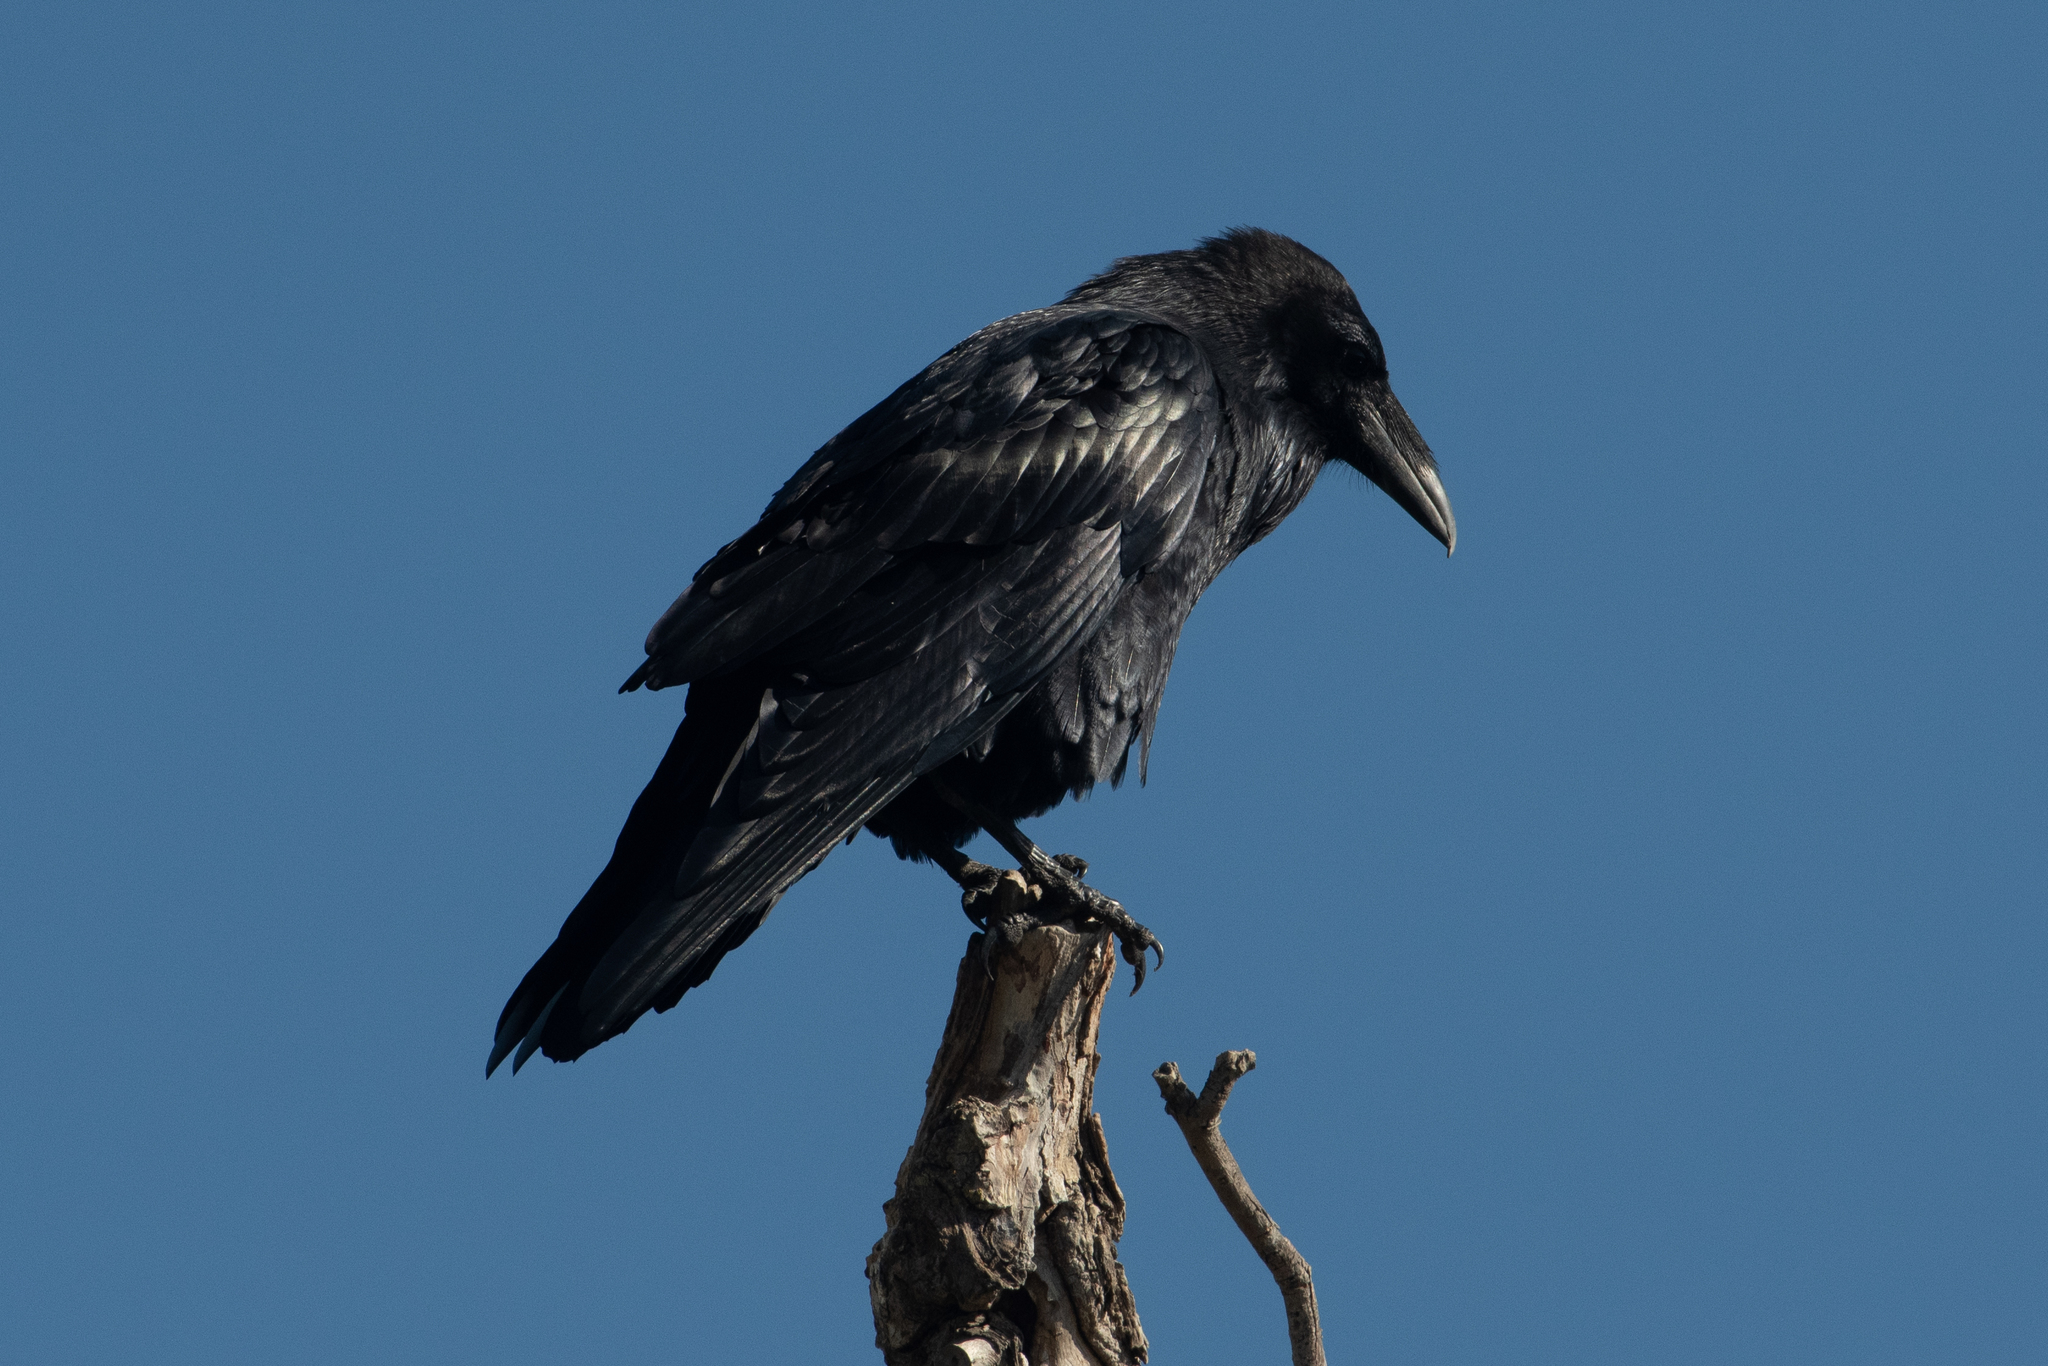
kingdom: Animalia
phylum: Chordata
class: Aves
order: Passeriformes
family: Corvidae
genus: Corvus
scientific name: Corvus corax
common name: Common raven
